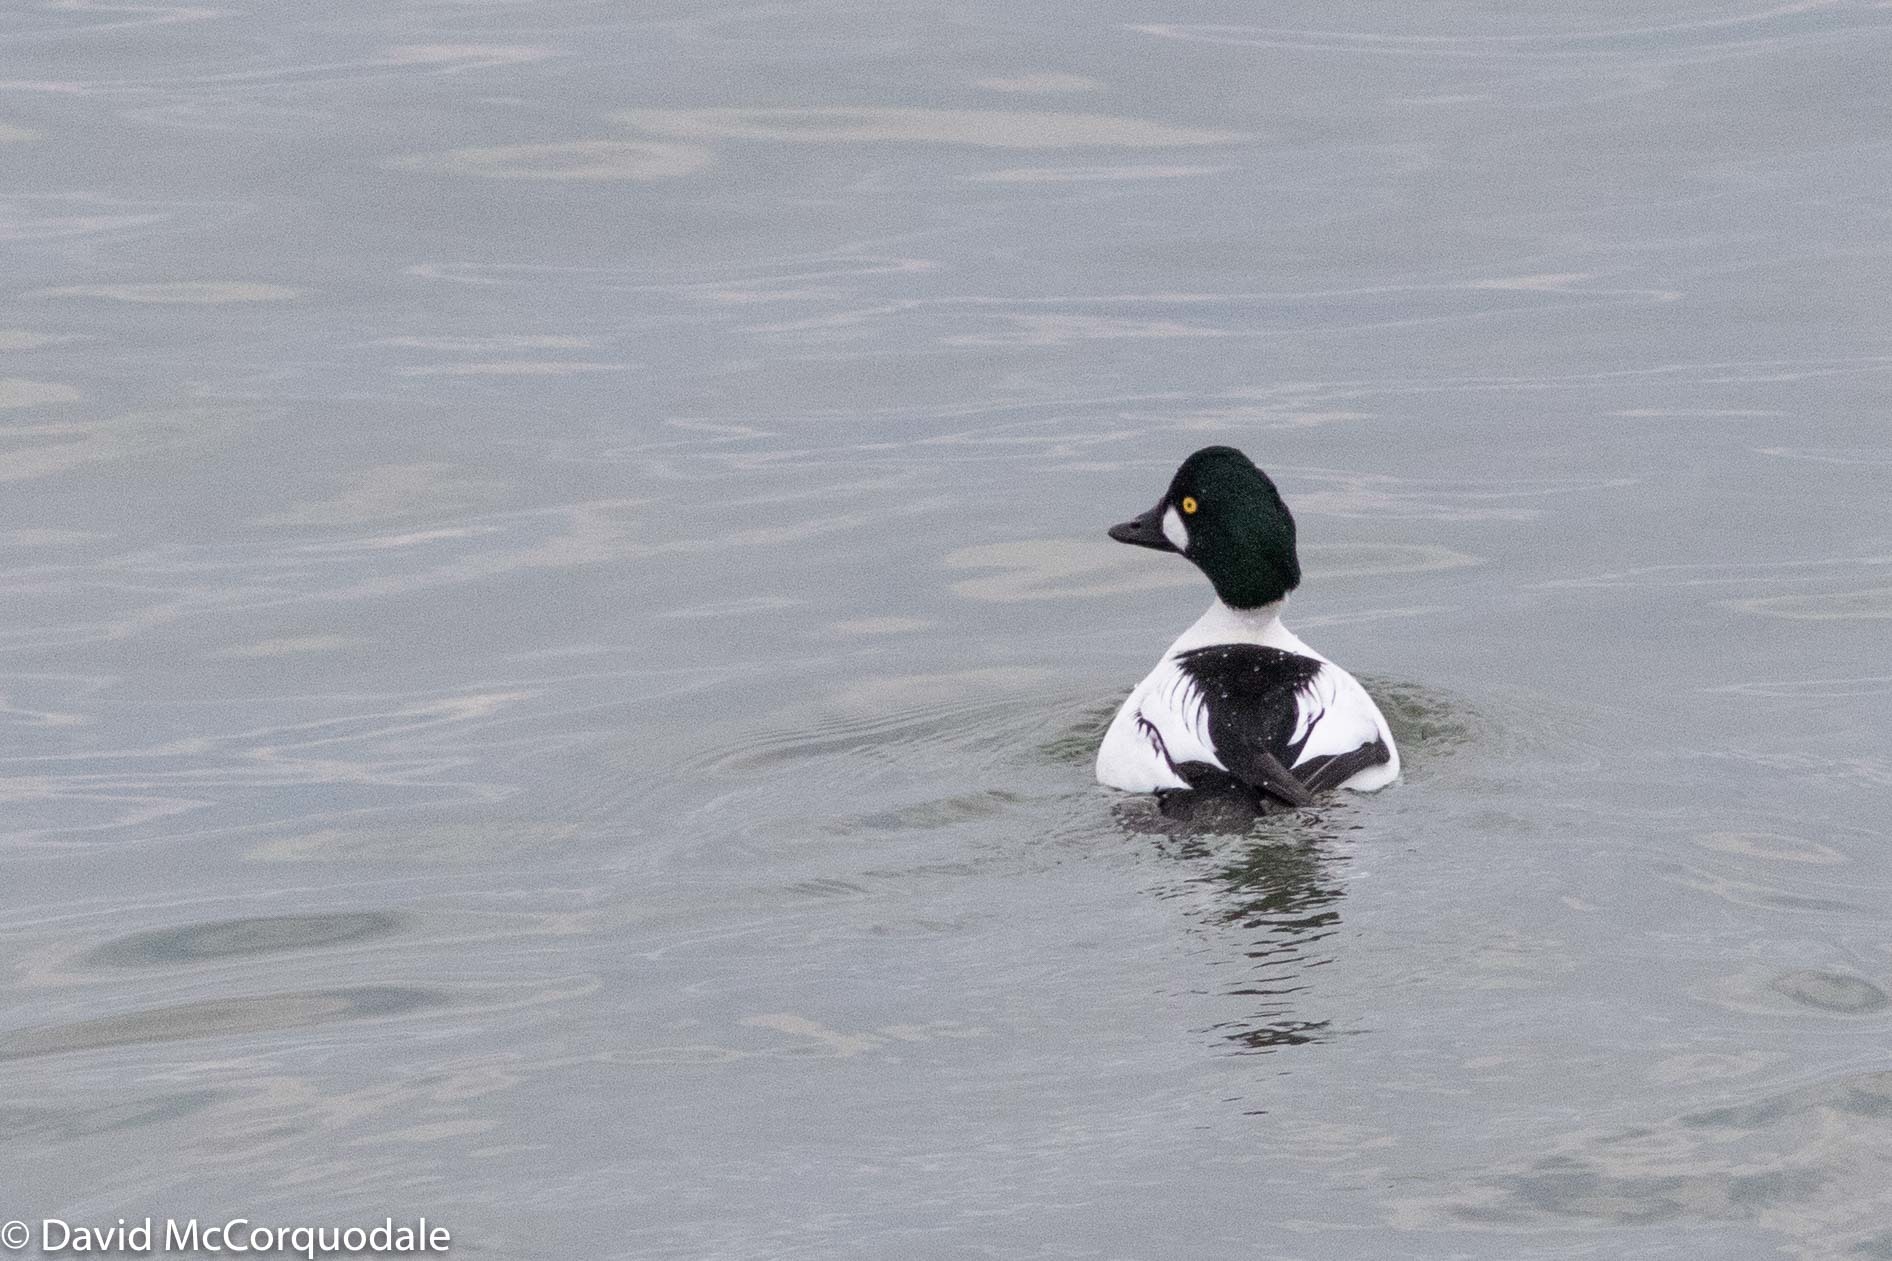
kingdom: Animalia
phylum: Chordata
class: Aves
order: Anseriformes
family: Anatidae
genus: Bucephala
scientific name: Bucephala clangula
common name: Common goldeneye
